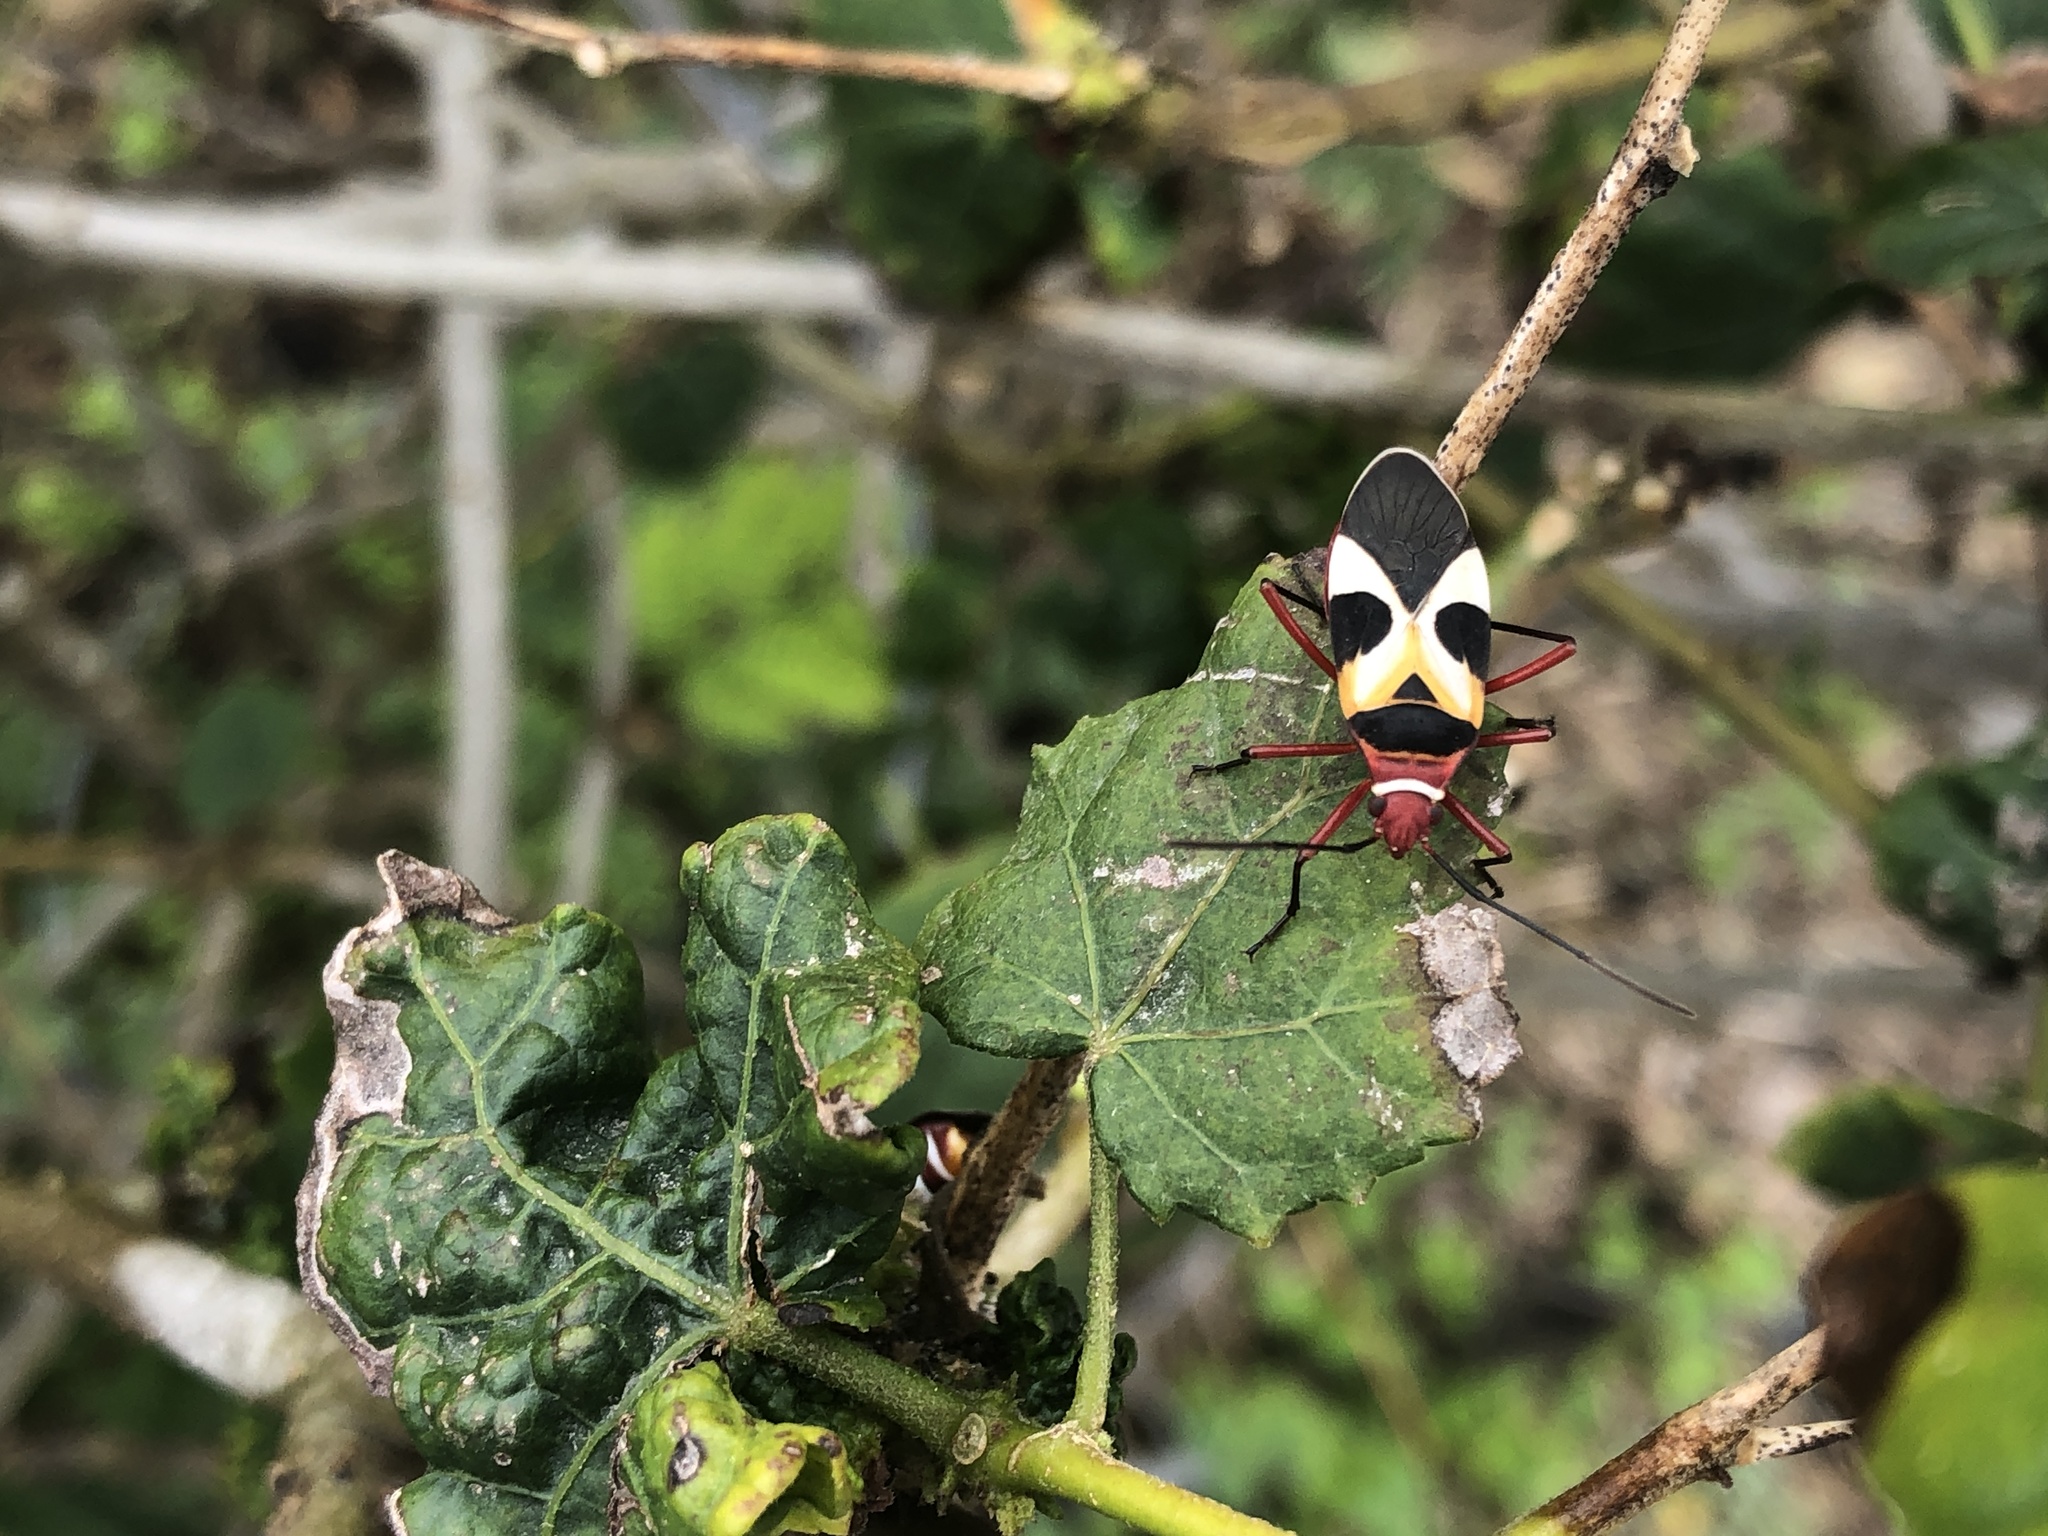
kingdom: Animalia
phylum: Arthropoda
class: Insecta
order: Hemiptera
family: Pyrrhocoridae
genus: Dysdercus
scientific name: Dysdercus concinnus
